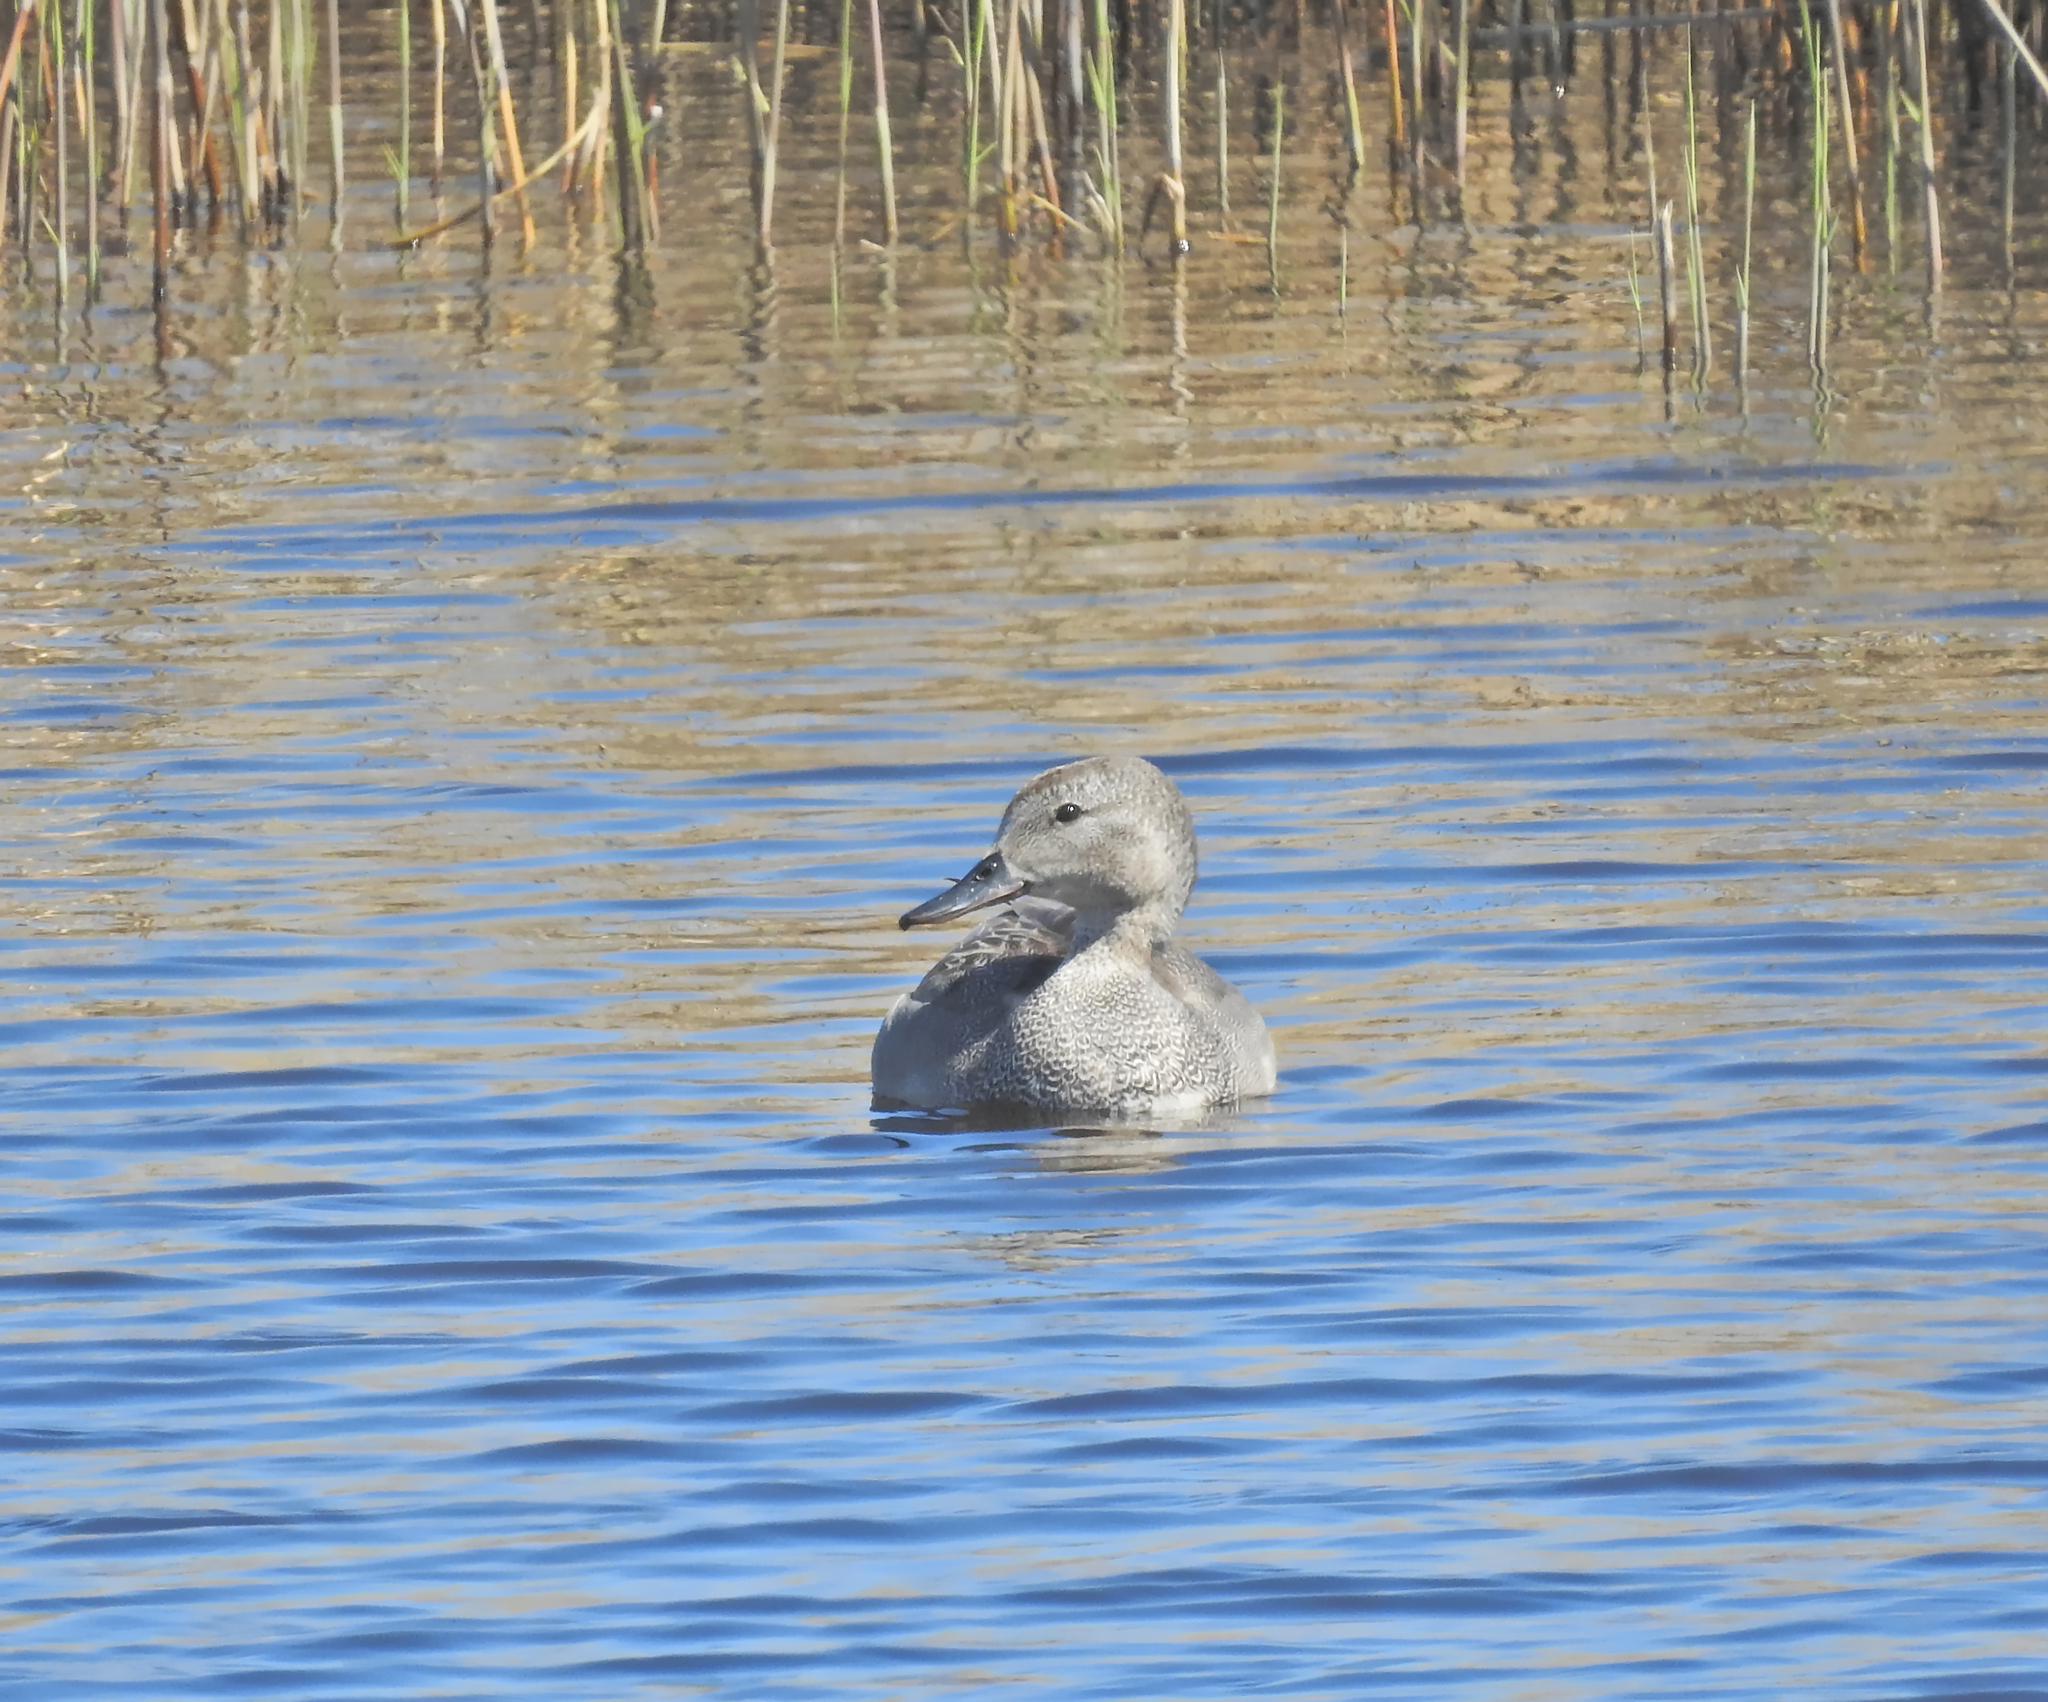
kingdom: Animalia
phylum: Chordata
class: Aves
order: Anseriformes
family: Anatidae
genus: Mareca
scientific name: Mareca strepera
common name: Gadwall
